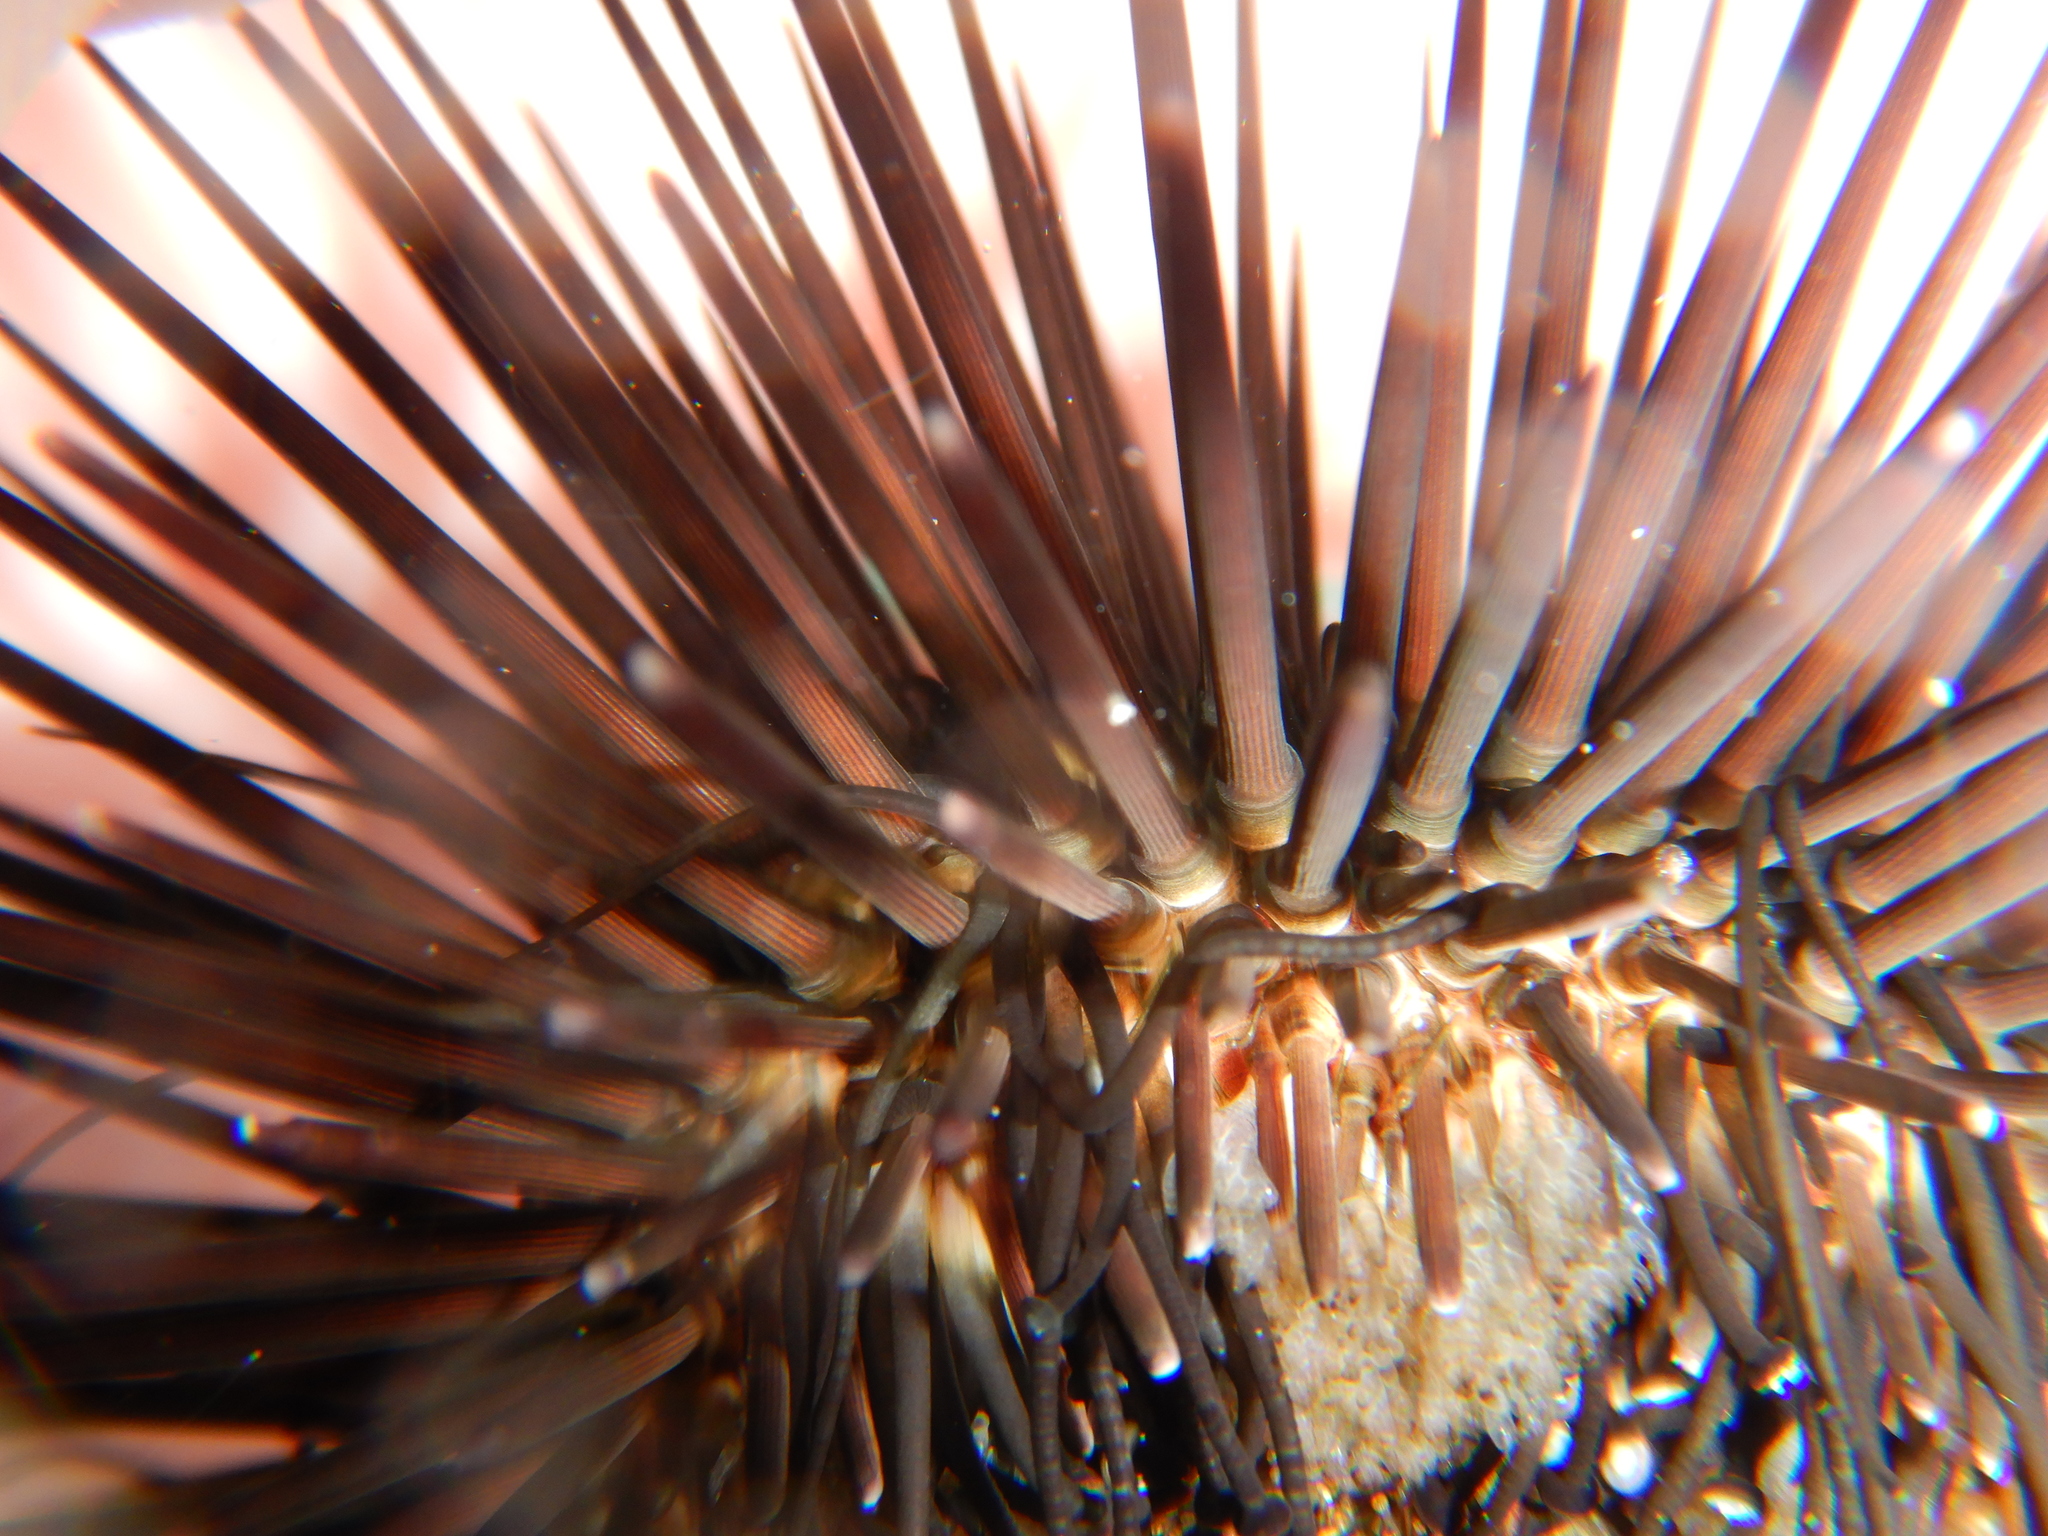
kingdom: Animalia
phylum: Echinodermata
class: Echinoidea
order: Camarodonta
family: Parechinidae
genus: Paracentrotus
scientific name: Paracentrotus lividus
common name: Purple sea urchin
